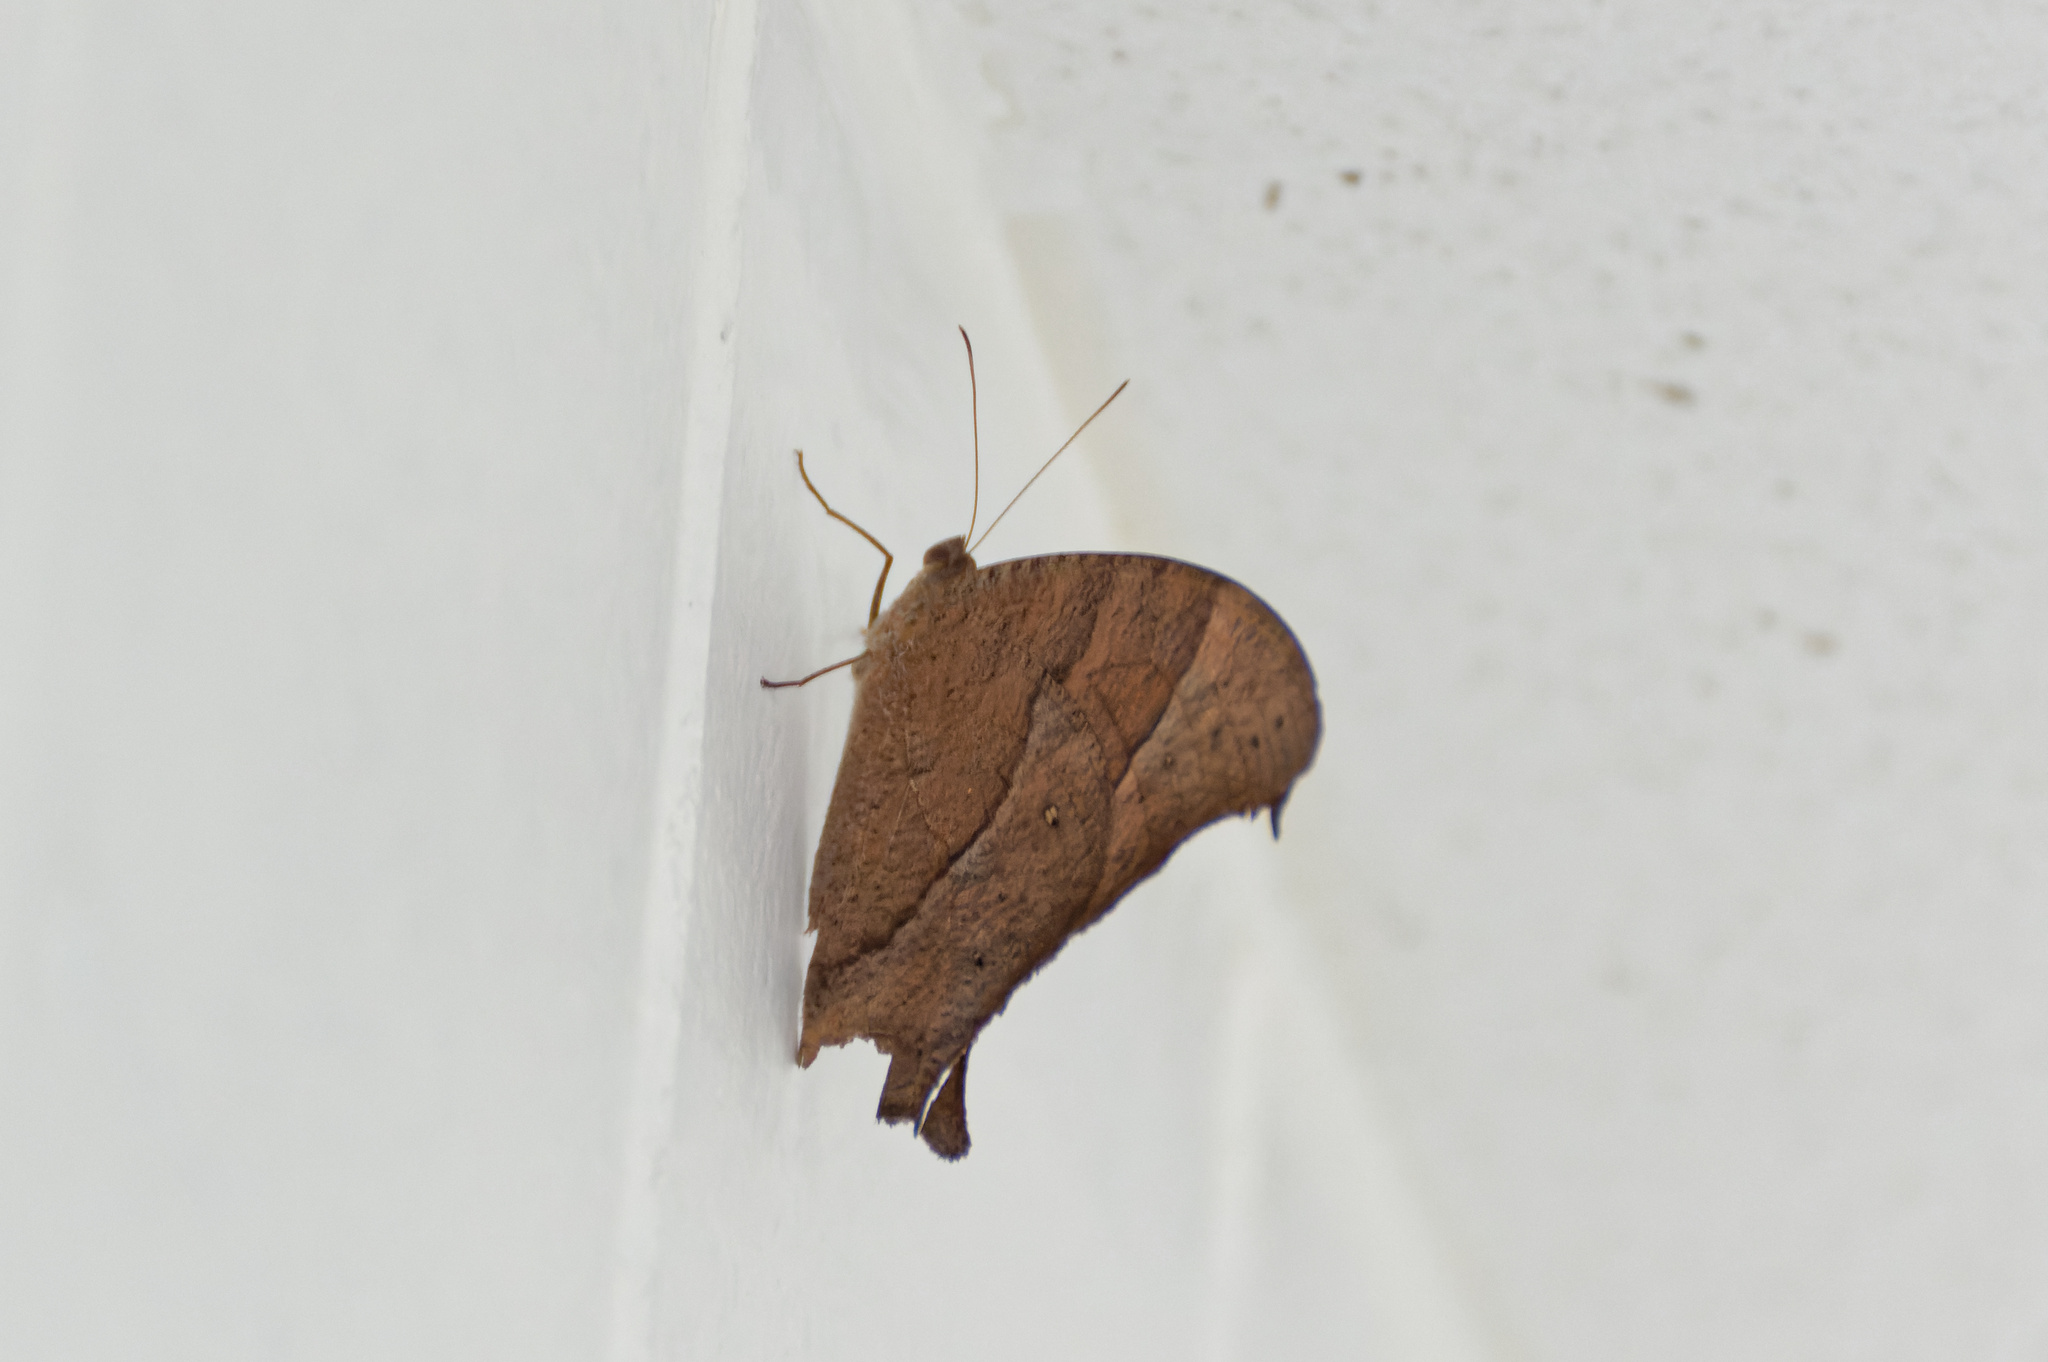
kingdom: Animalia
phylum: Arthropoda
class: Insecta
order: Lepidoptera
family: Nymphalidae
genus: Melanitis
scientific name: Melanitis leda
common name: Twilight brown
